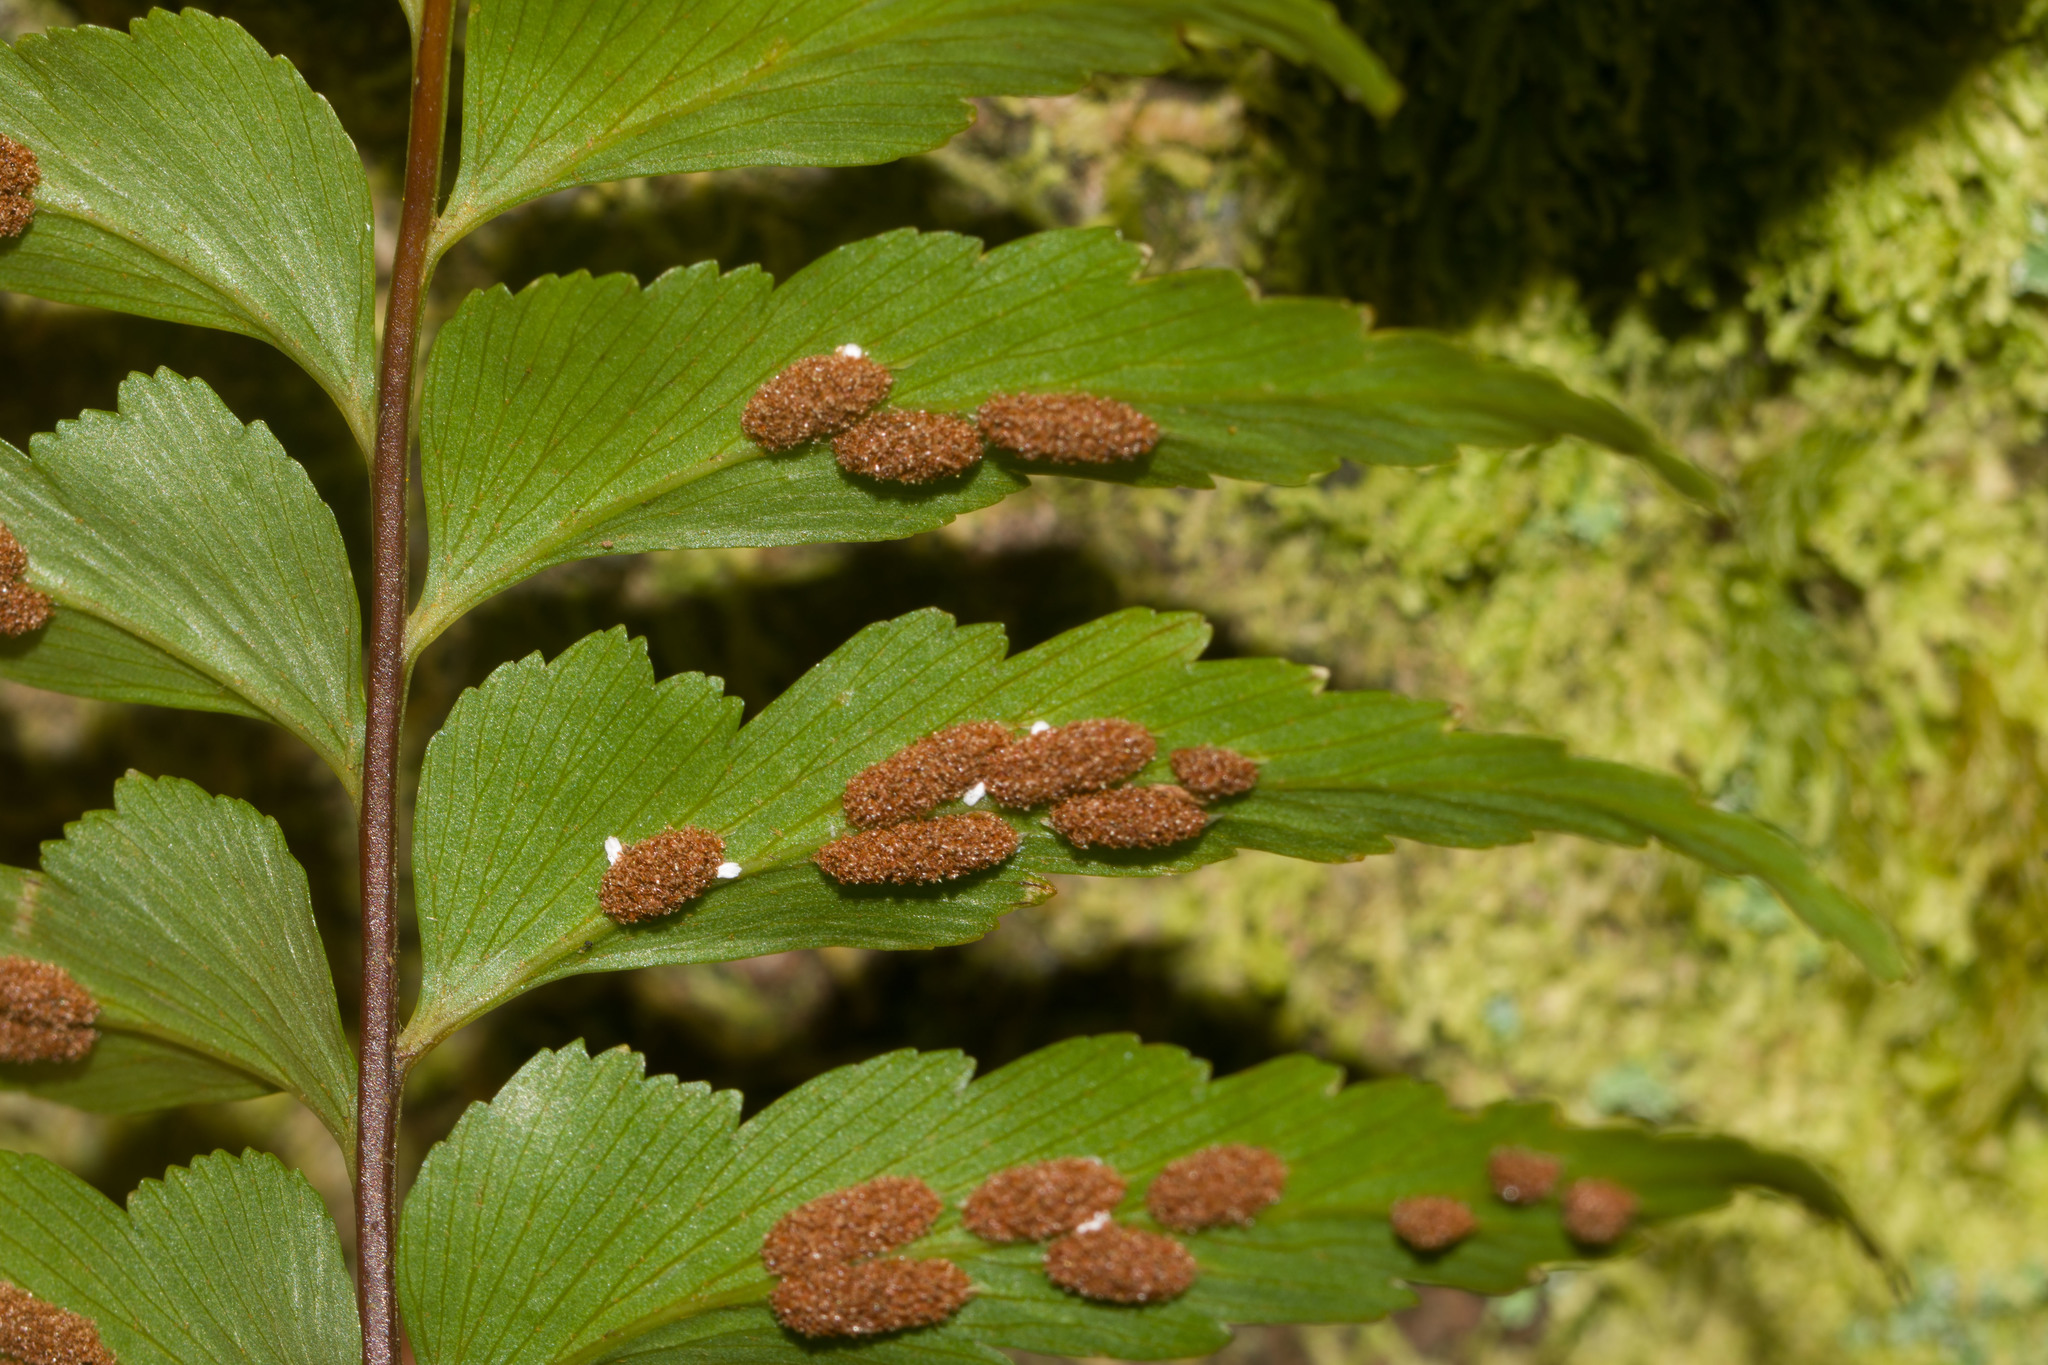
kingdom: Plantae
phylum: Tracheophyta
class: Polypodiopsida
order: Polypodiales
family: Aspleniaceae
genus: Asplenium
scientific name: Asplenium contiguum
